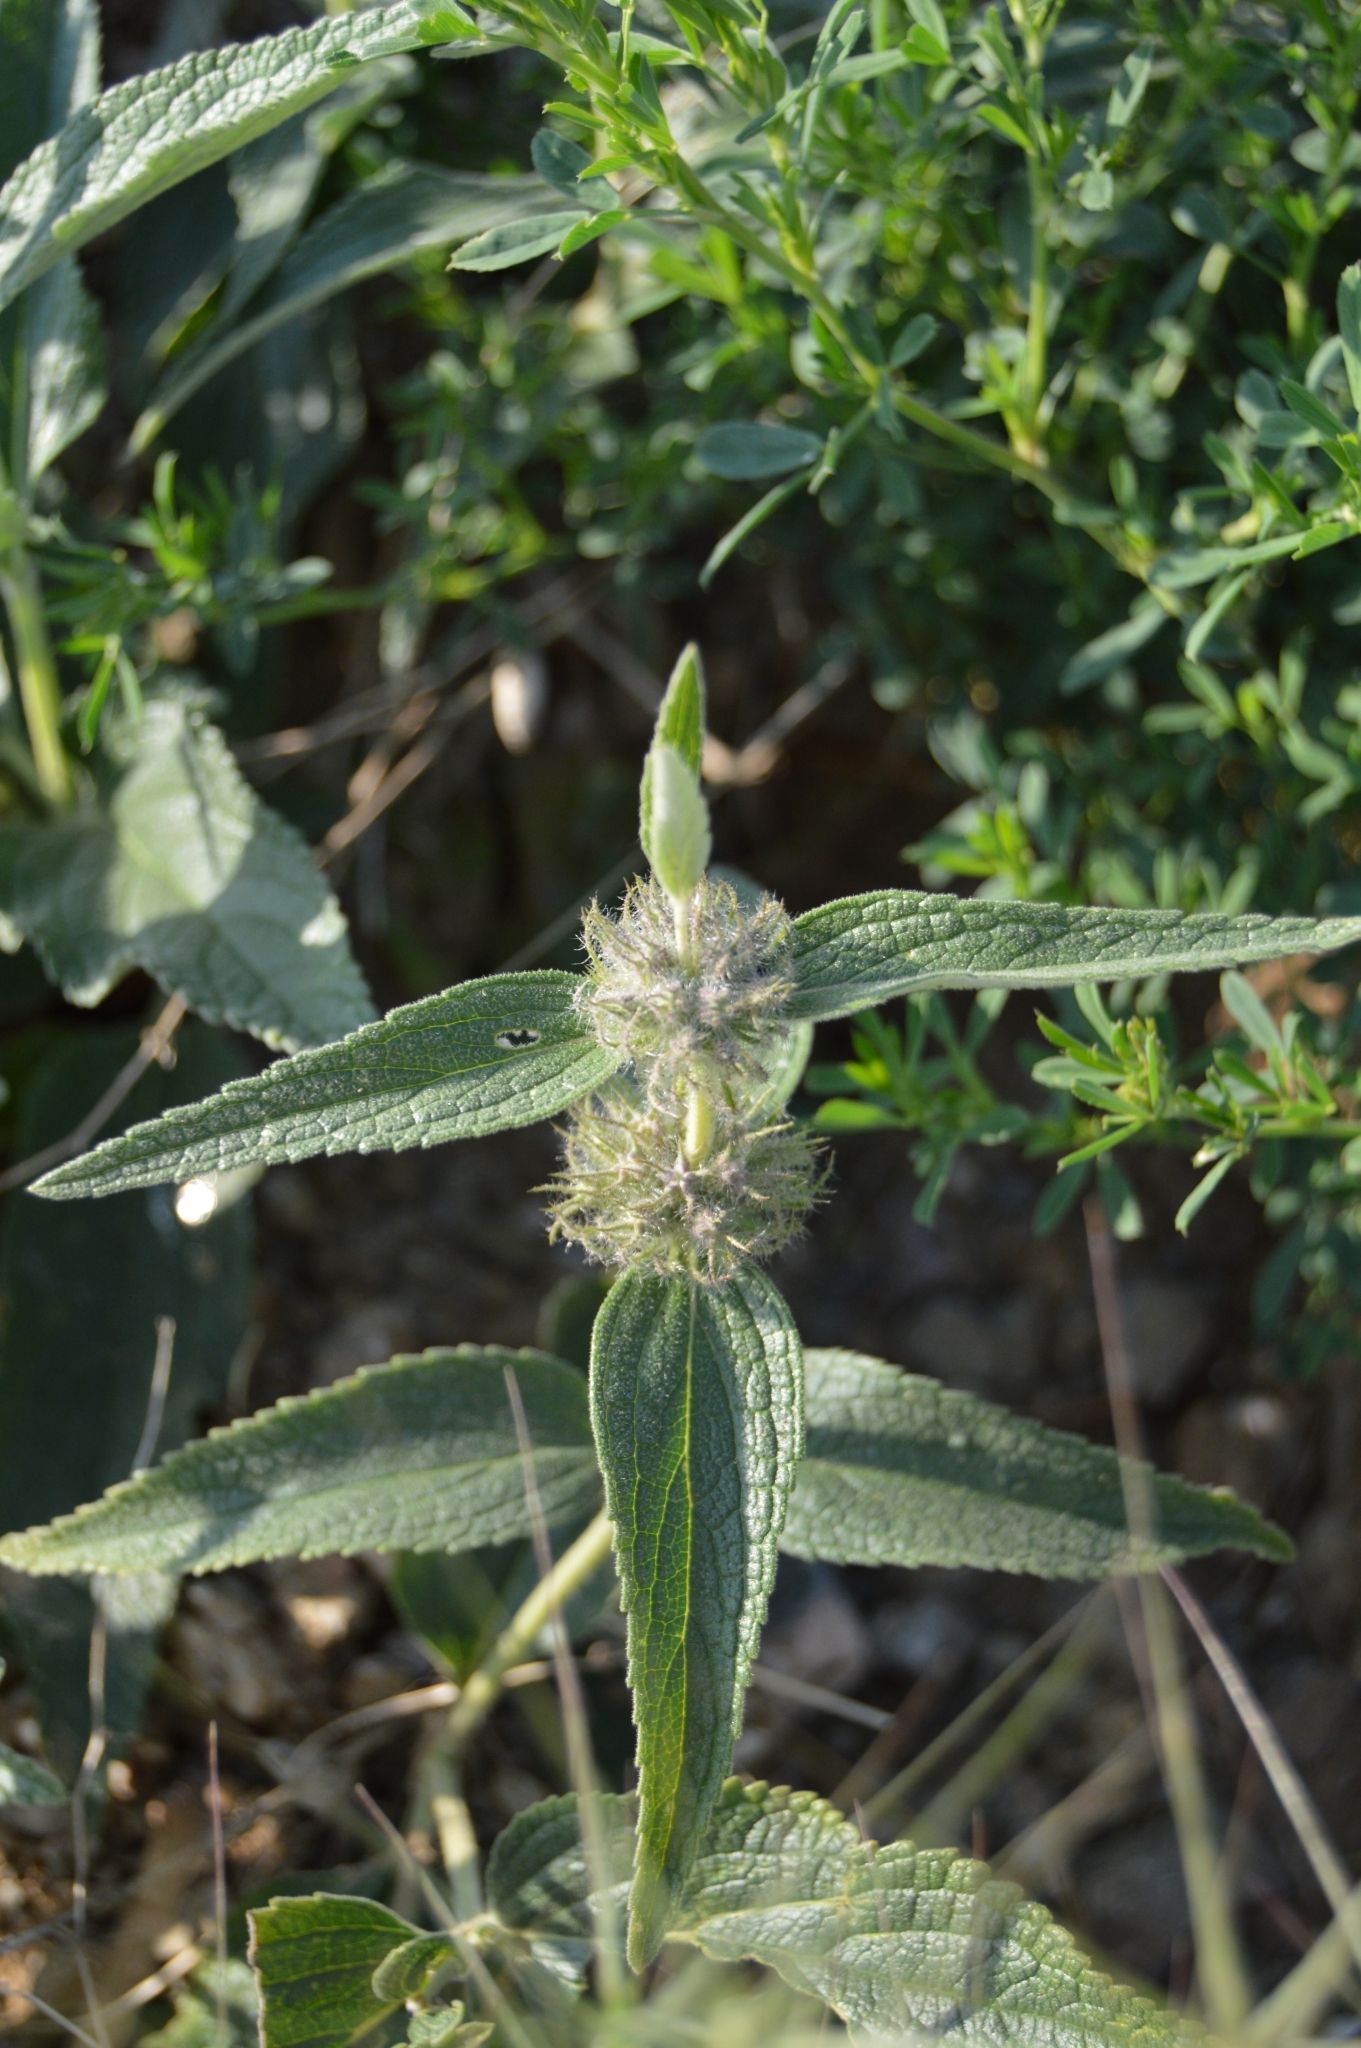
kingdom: Plantae
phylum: Tracheophyta
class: Magnoliopsida
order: Lamiales
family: Lamiaceae
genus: Phlomis
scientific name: Phlomis herba-venti
